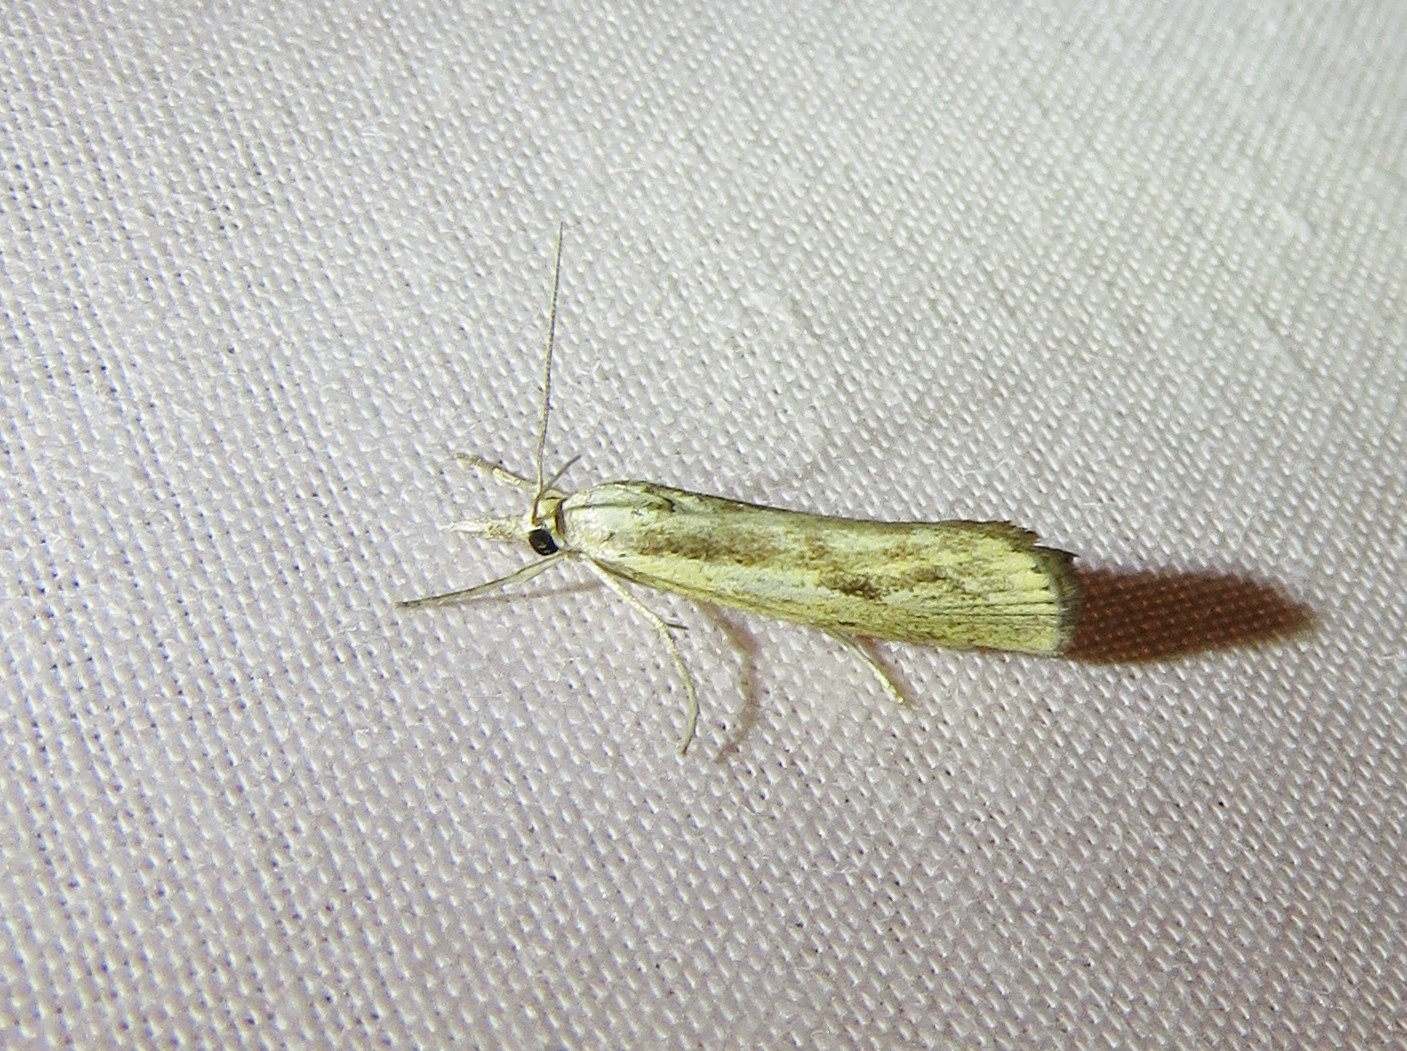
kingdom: Animalia
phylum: Arthropoda
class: Insecta
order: Lepidoptera
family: Crambidae
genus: Agriphila
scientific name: Agriphila inquinatella
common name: Barred grass-veneer
